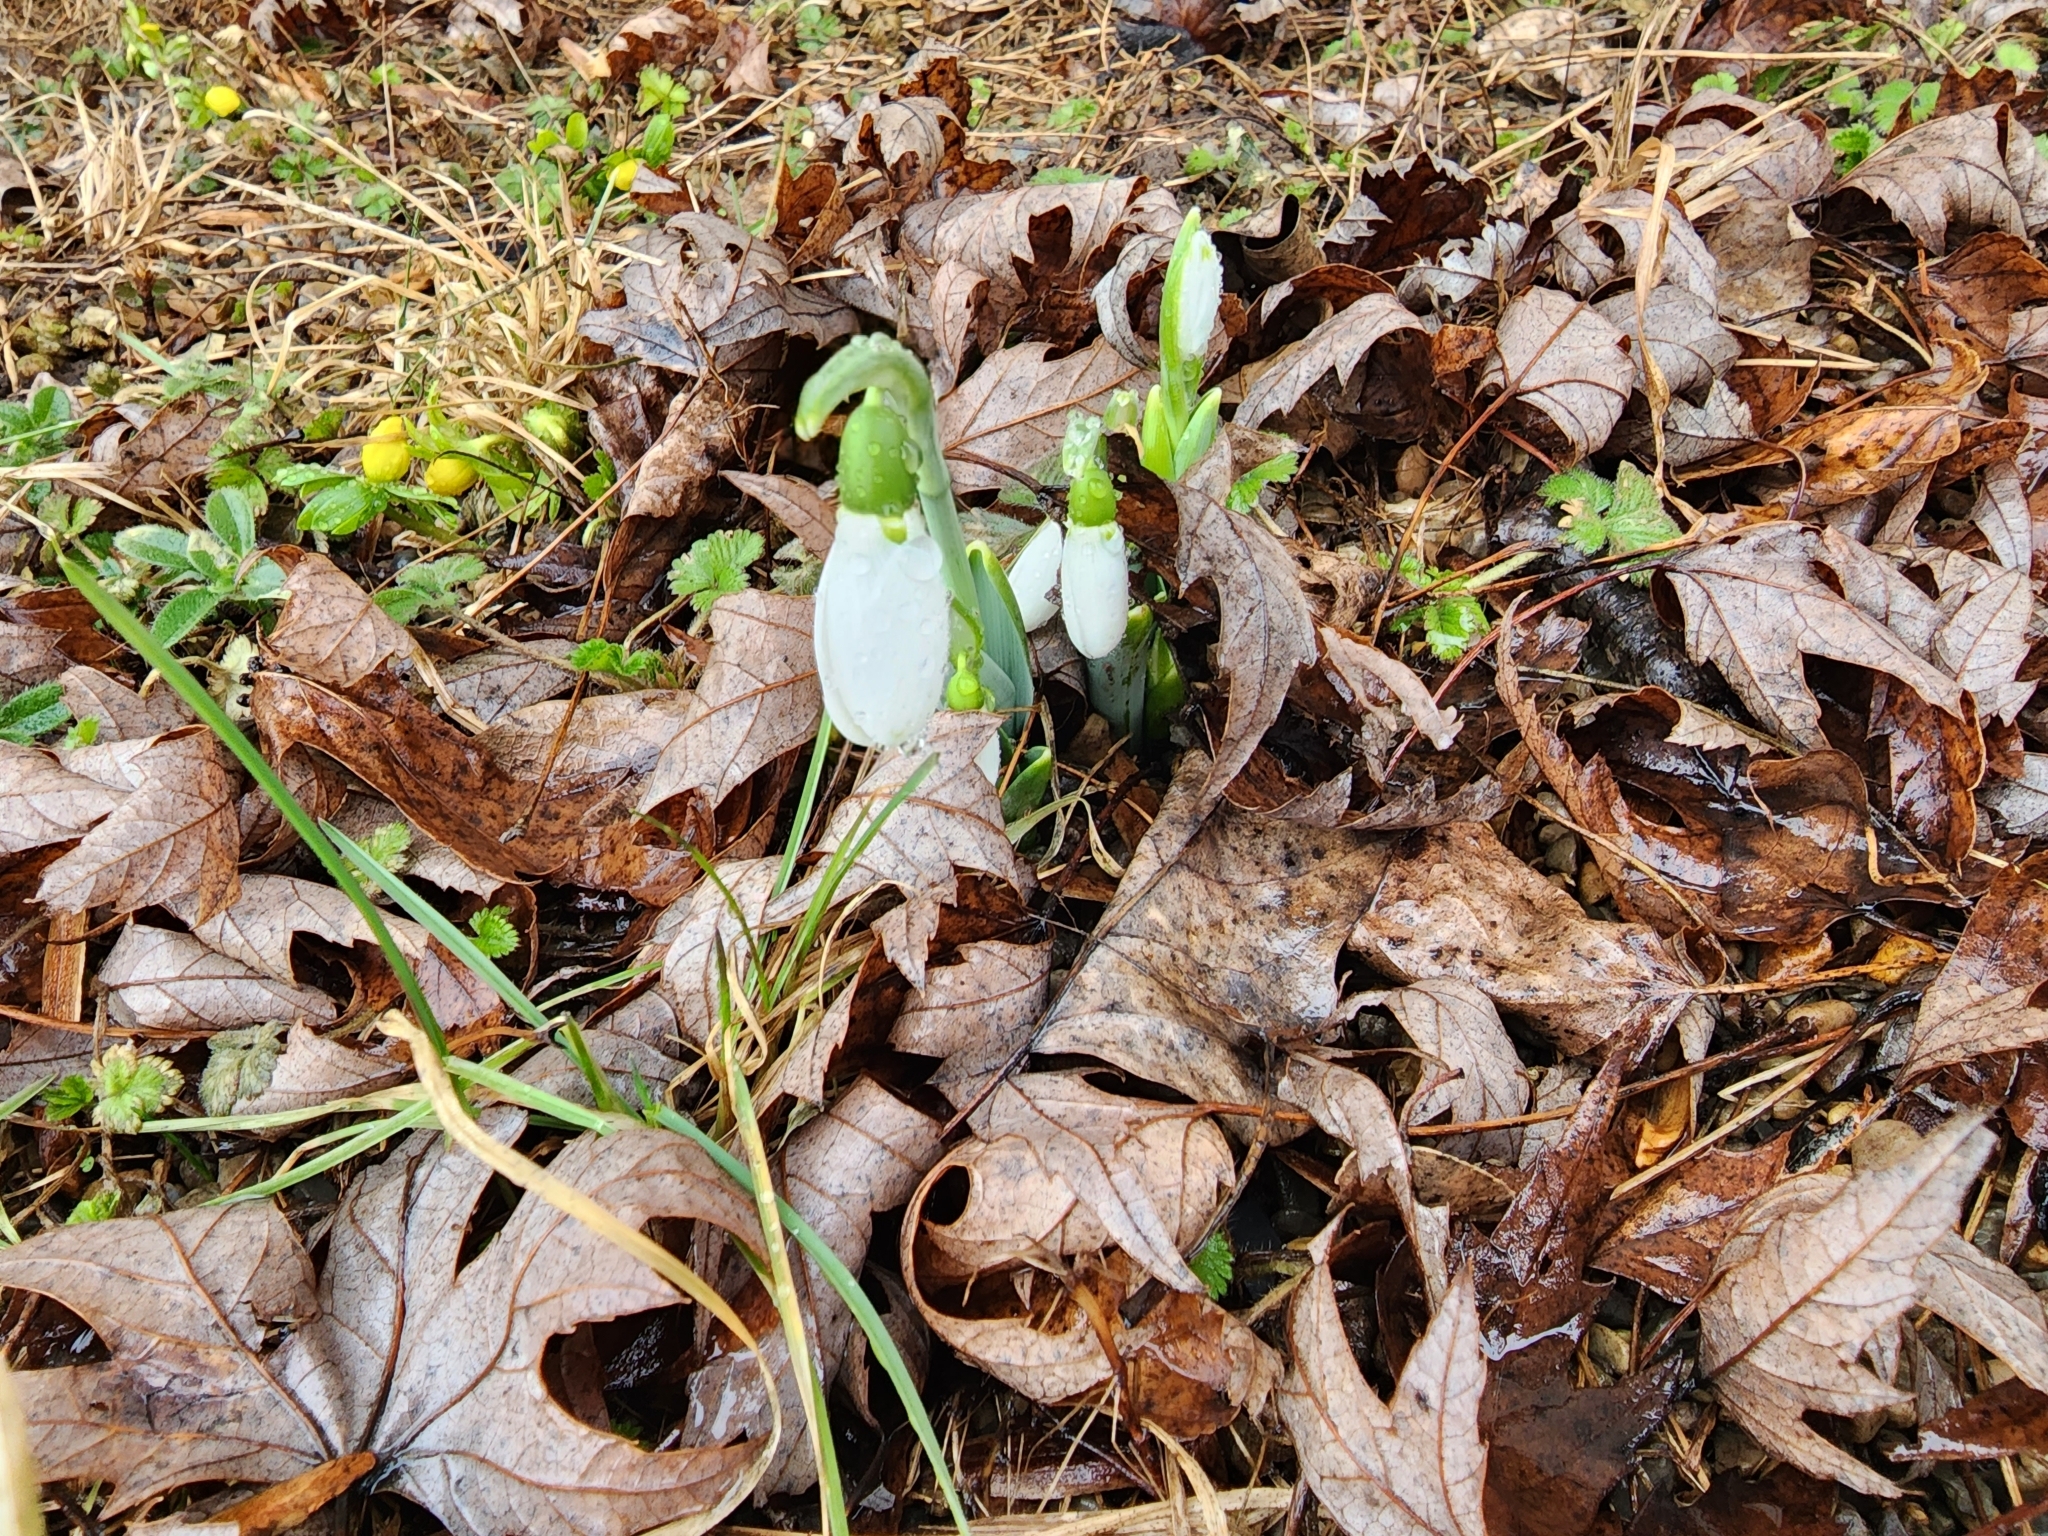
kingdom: Plantae
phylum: Tracheophyta
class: Liliopsida
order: Asparagales
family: Amaryllidaceae
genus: Galanthus
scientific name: Galanthus elwesii
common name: Greater snowdrop
